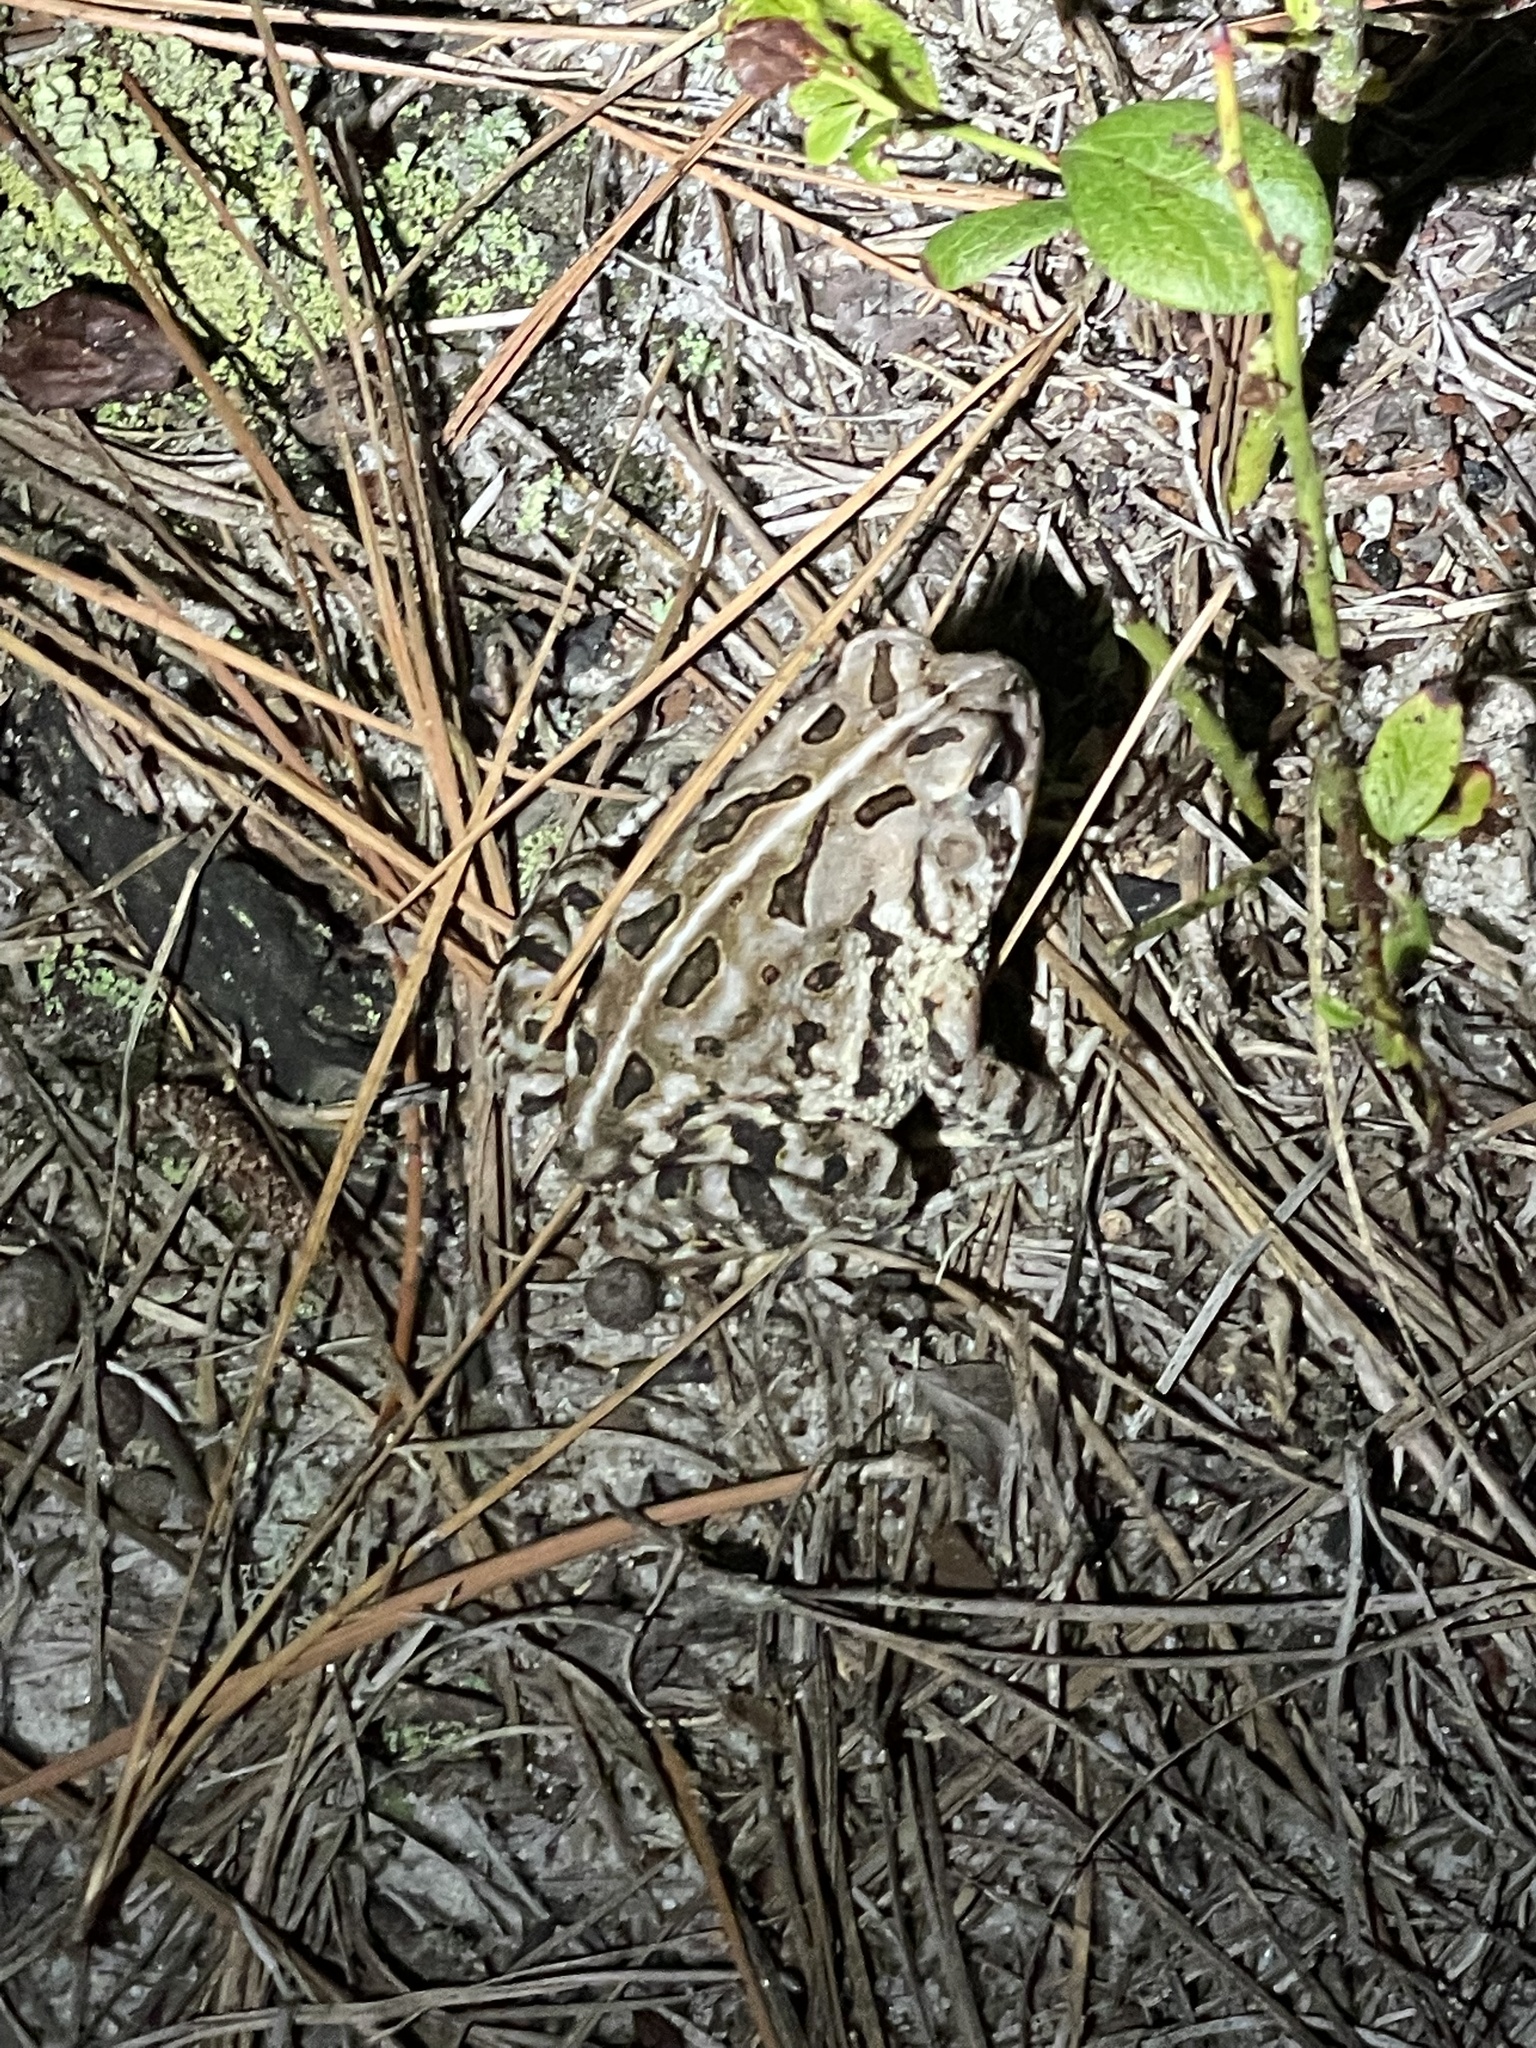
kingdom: Animalia
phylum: Chordata
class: Amphibia
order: Anura
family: Bufonidae
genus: Anaxyrus
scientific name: Anaxyrus fowleri
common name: Fowler's toad
